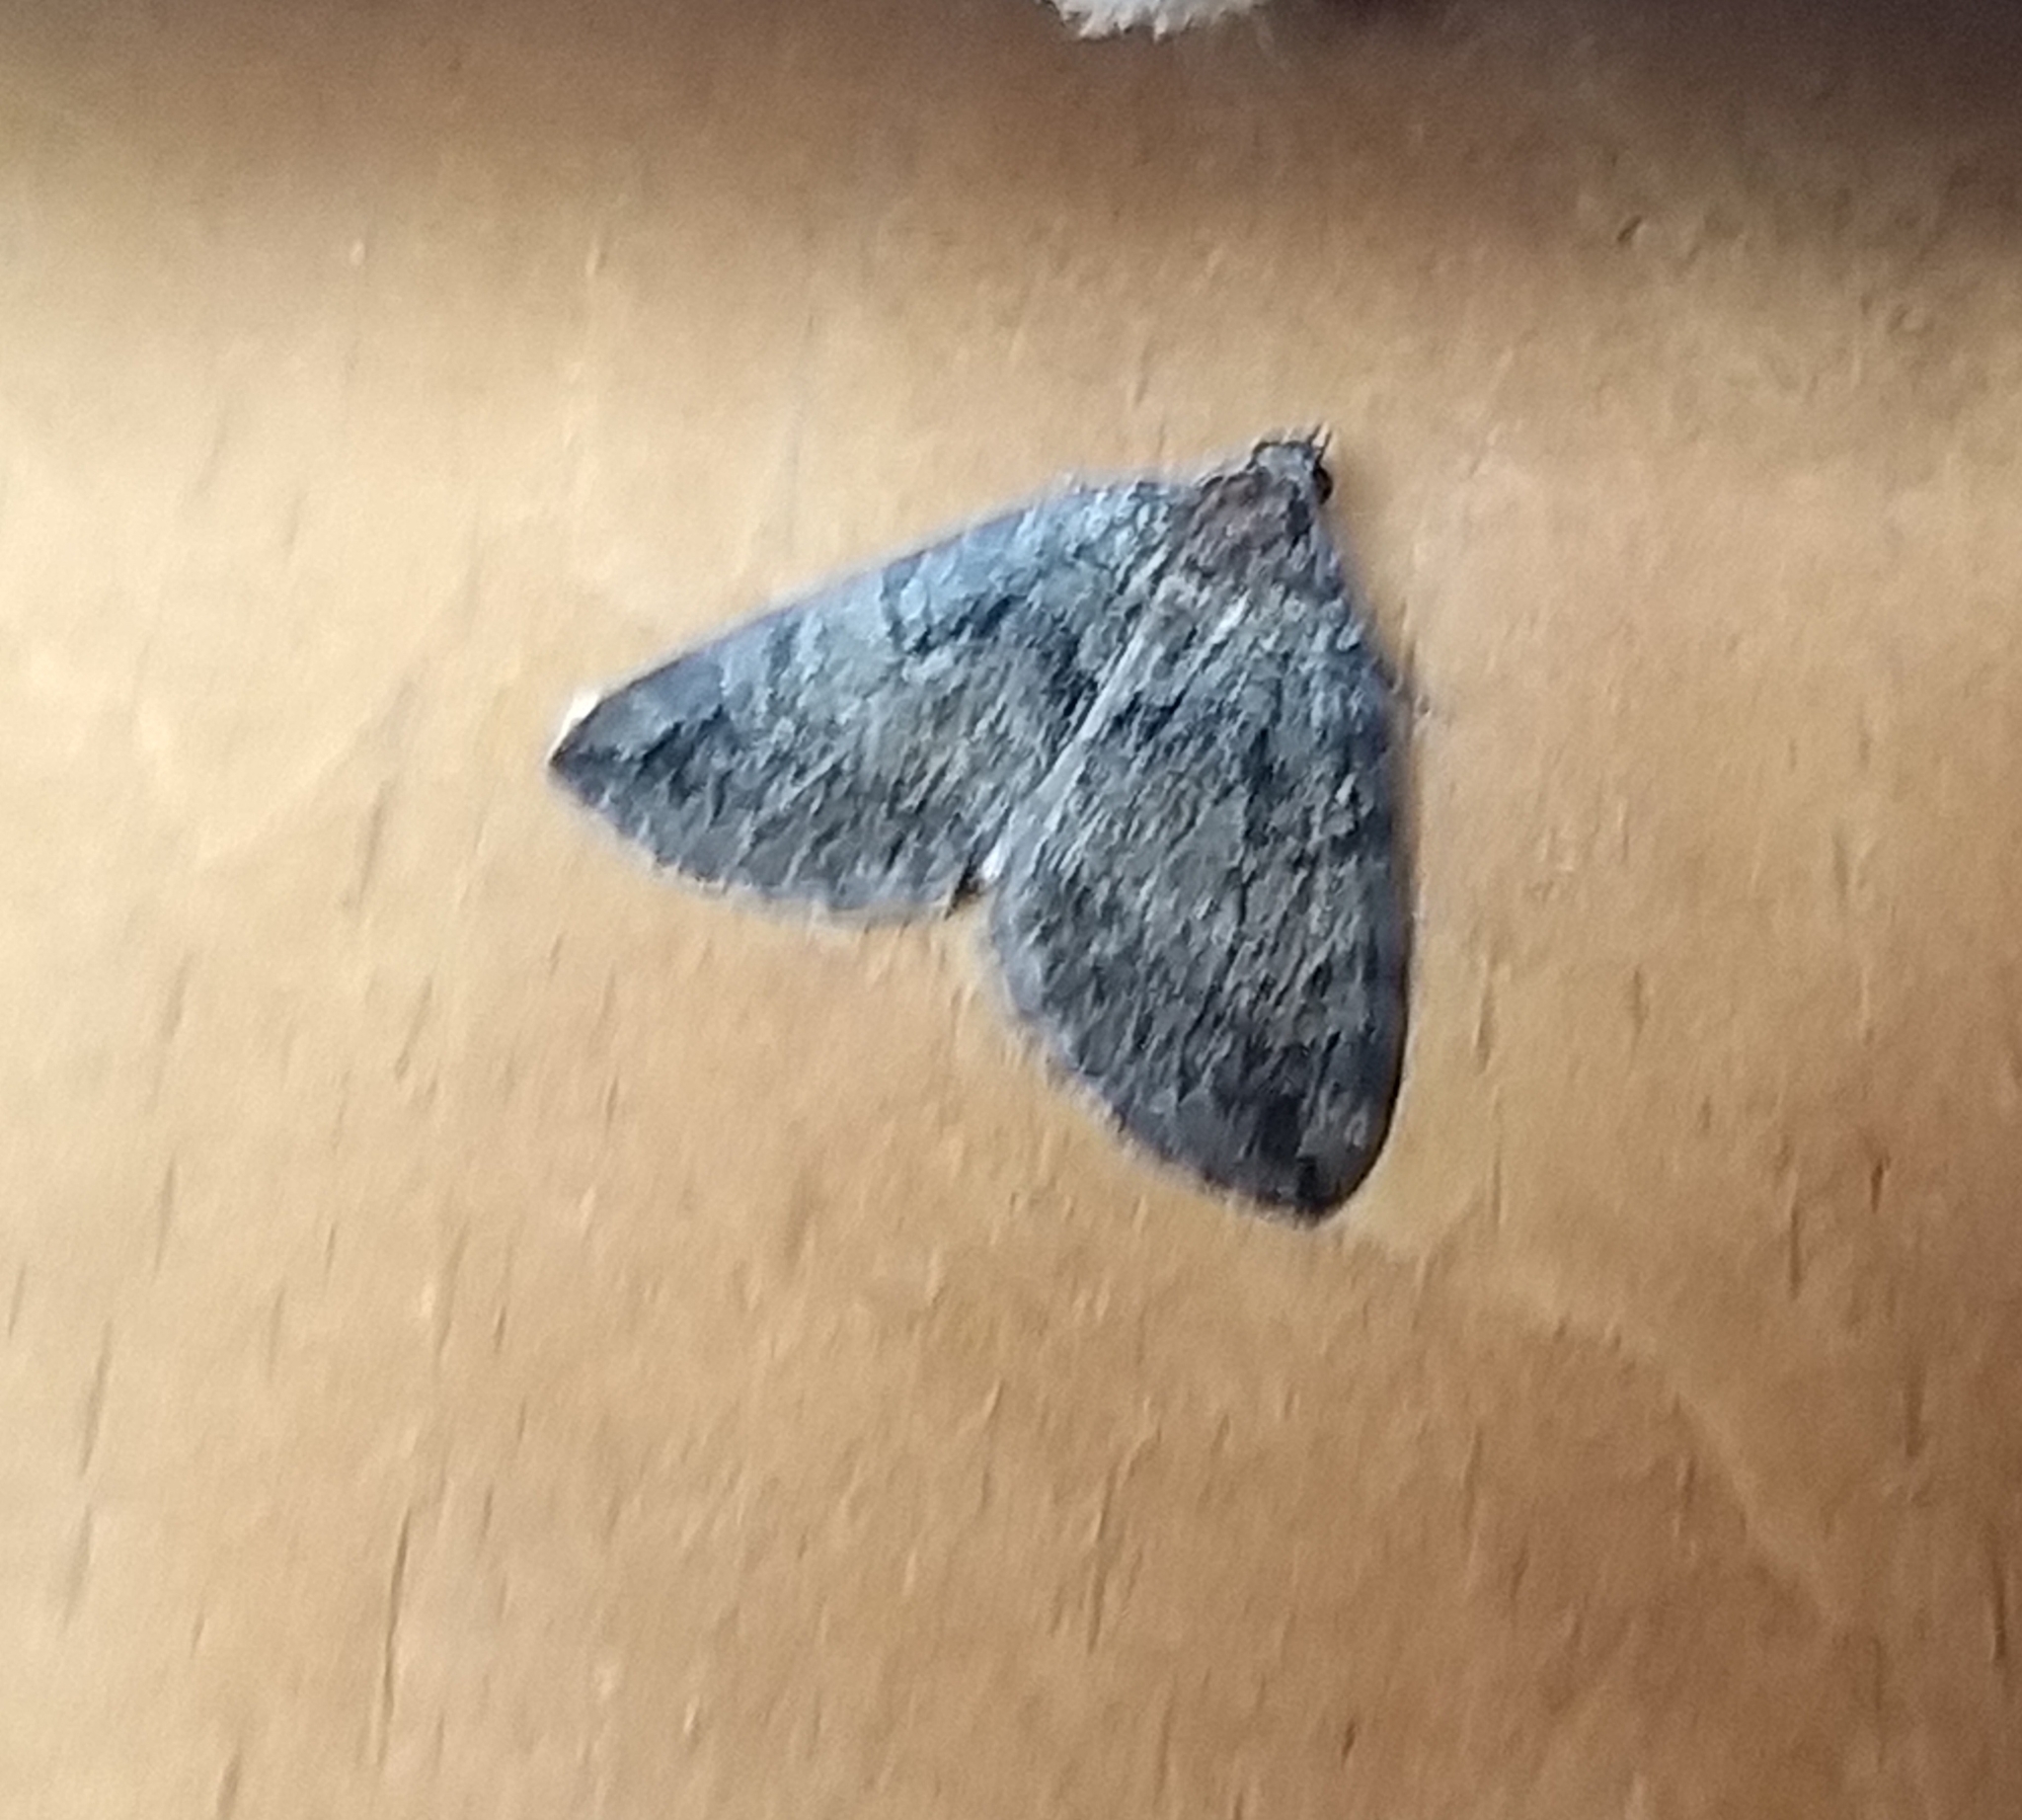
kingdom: Animalia
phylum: Arthropoda
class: Insecta
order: Lepidoptera
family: Geometridae
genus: Hydriomena
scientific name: Hydriomena furcata
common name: July highflyer
